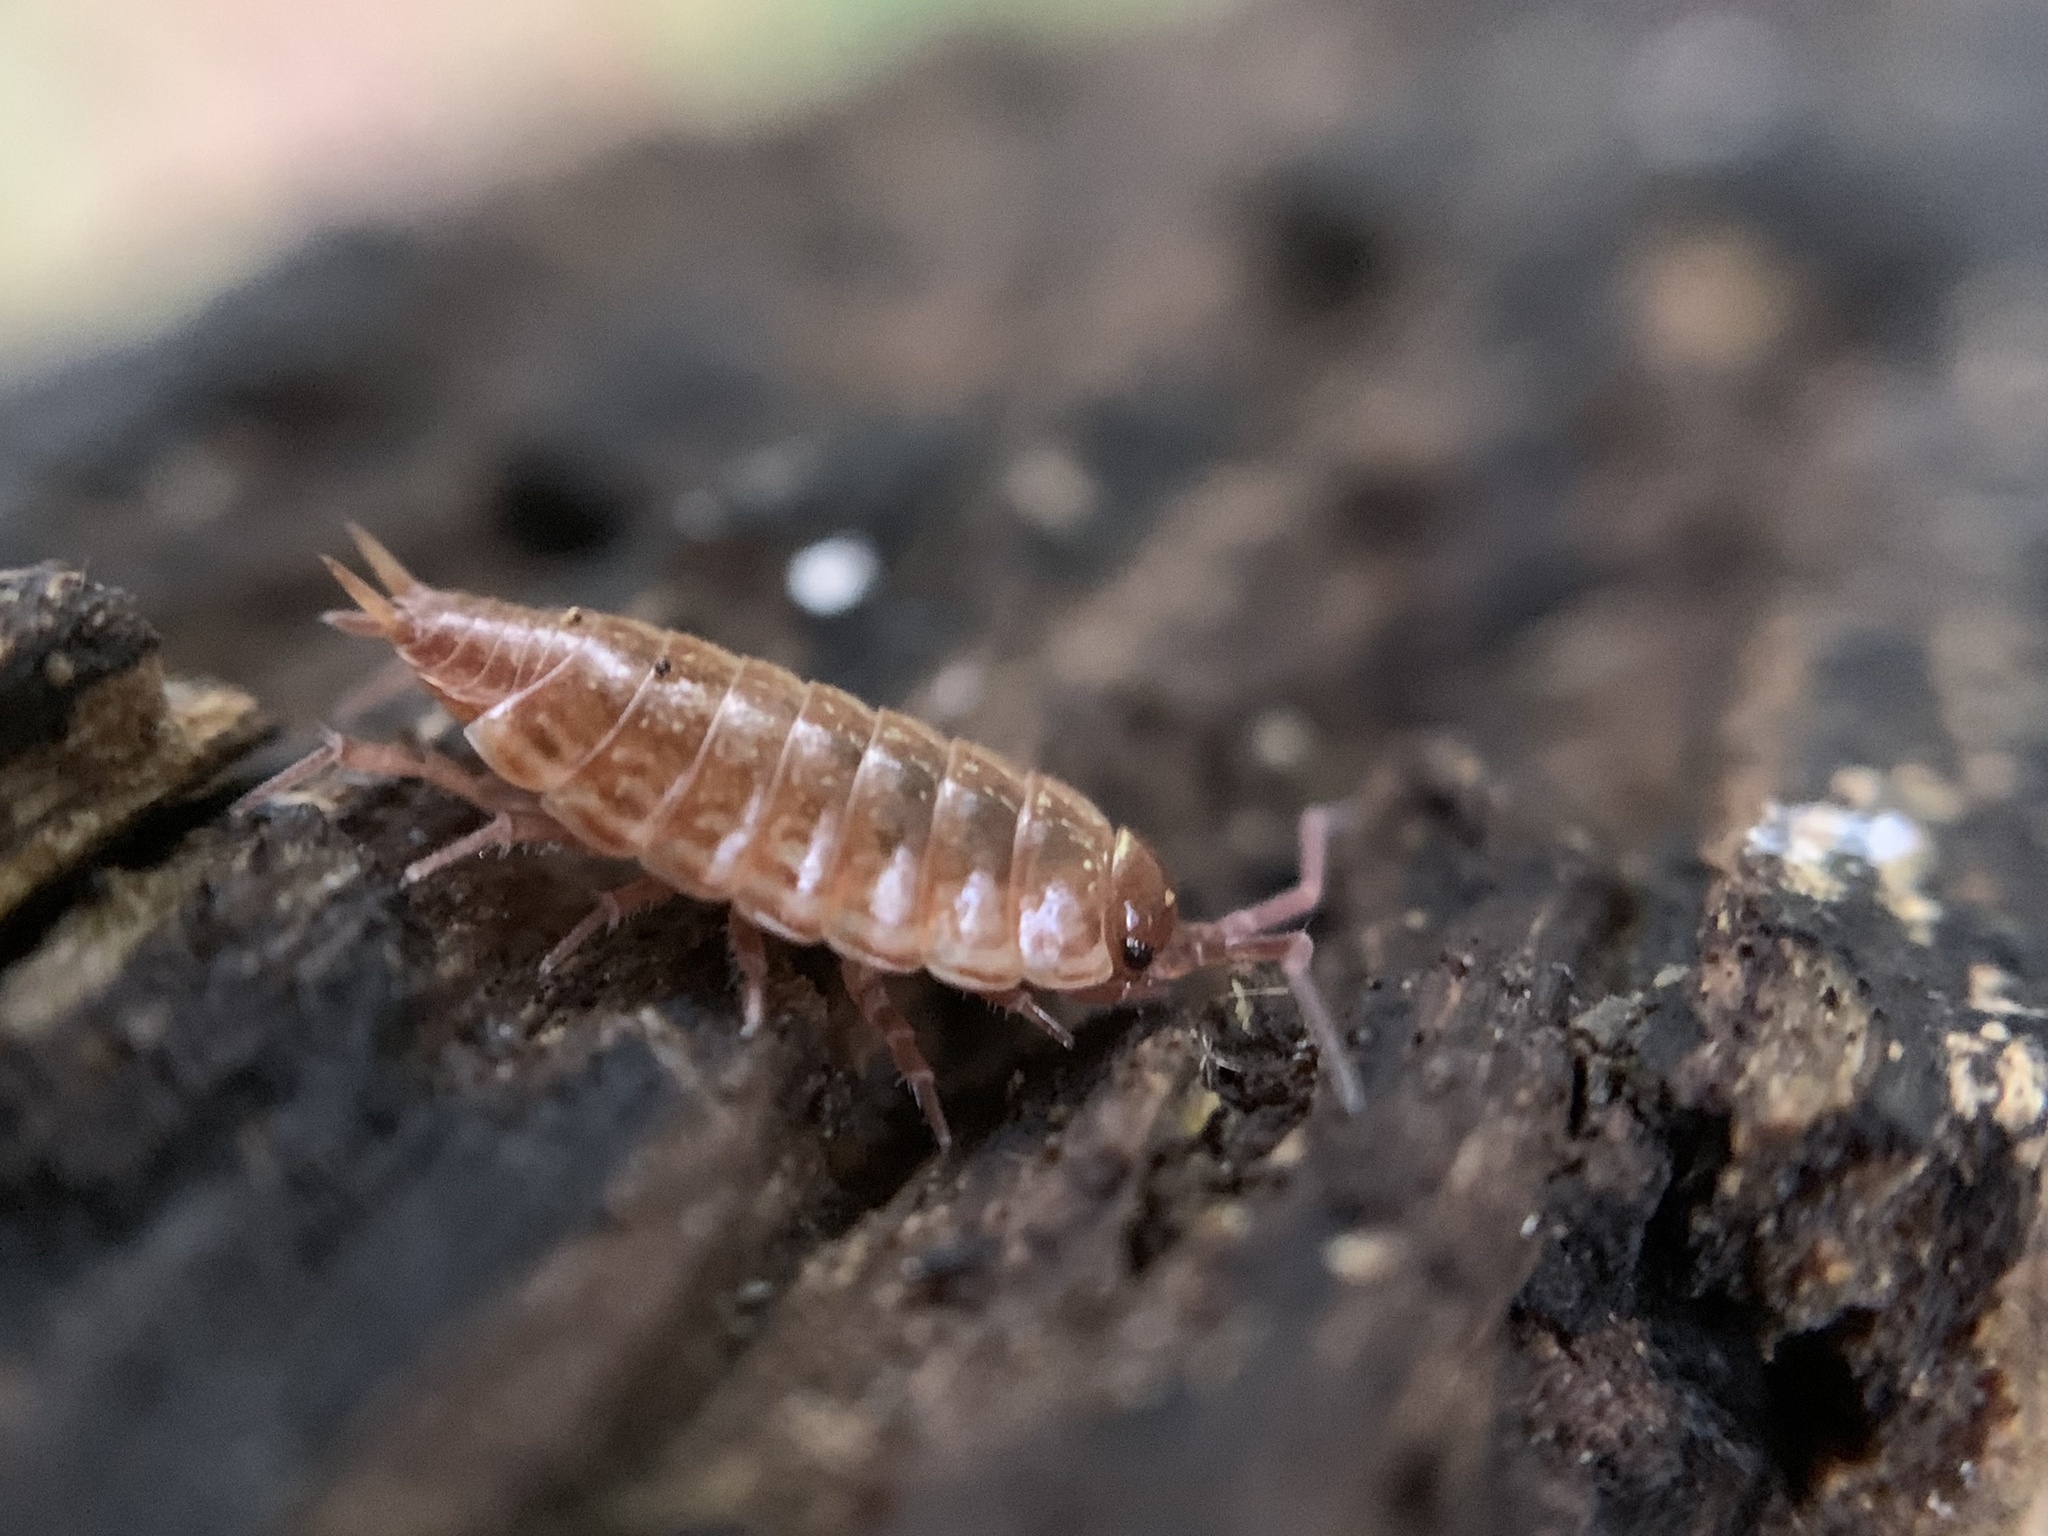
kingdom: Animalia
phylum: Arthropoda
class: Malacostraca
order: Isopoda
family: Philosciidae
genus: Philoscia
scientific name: Philoscia muscorum
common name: Common striped woodlouse
